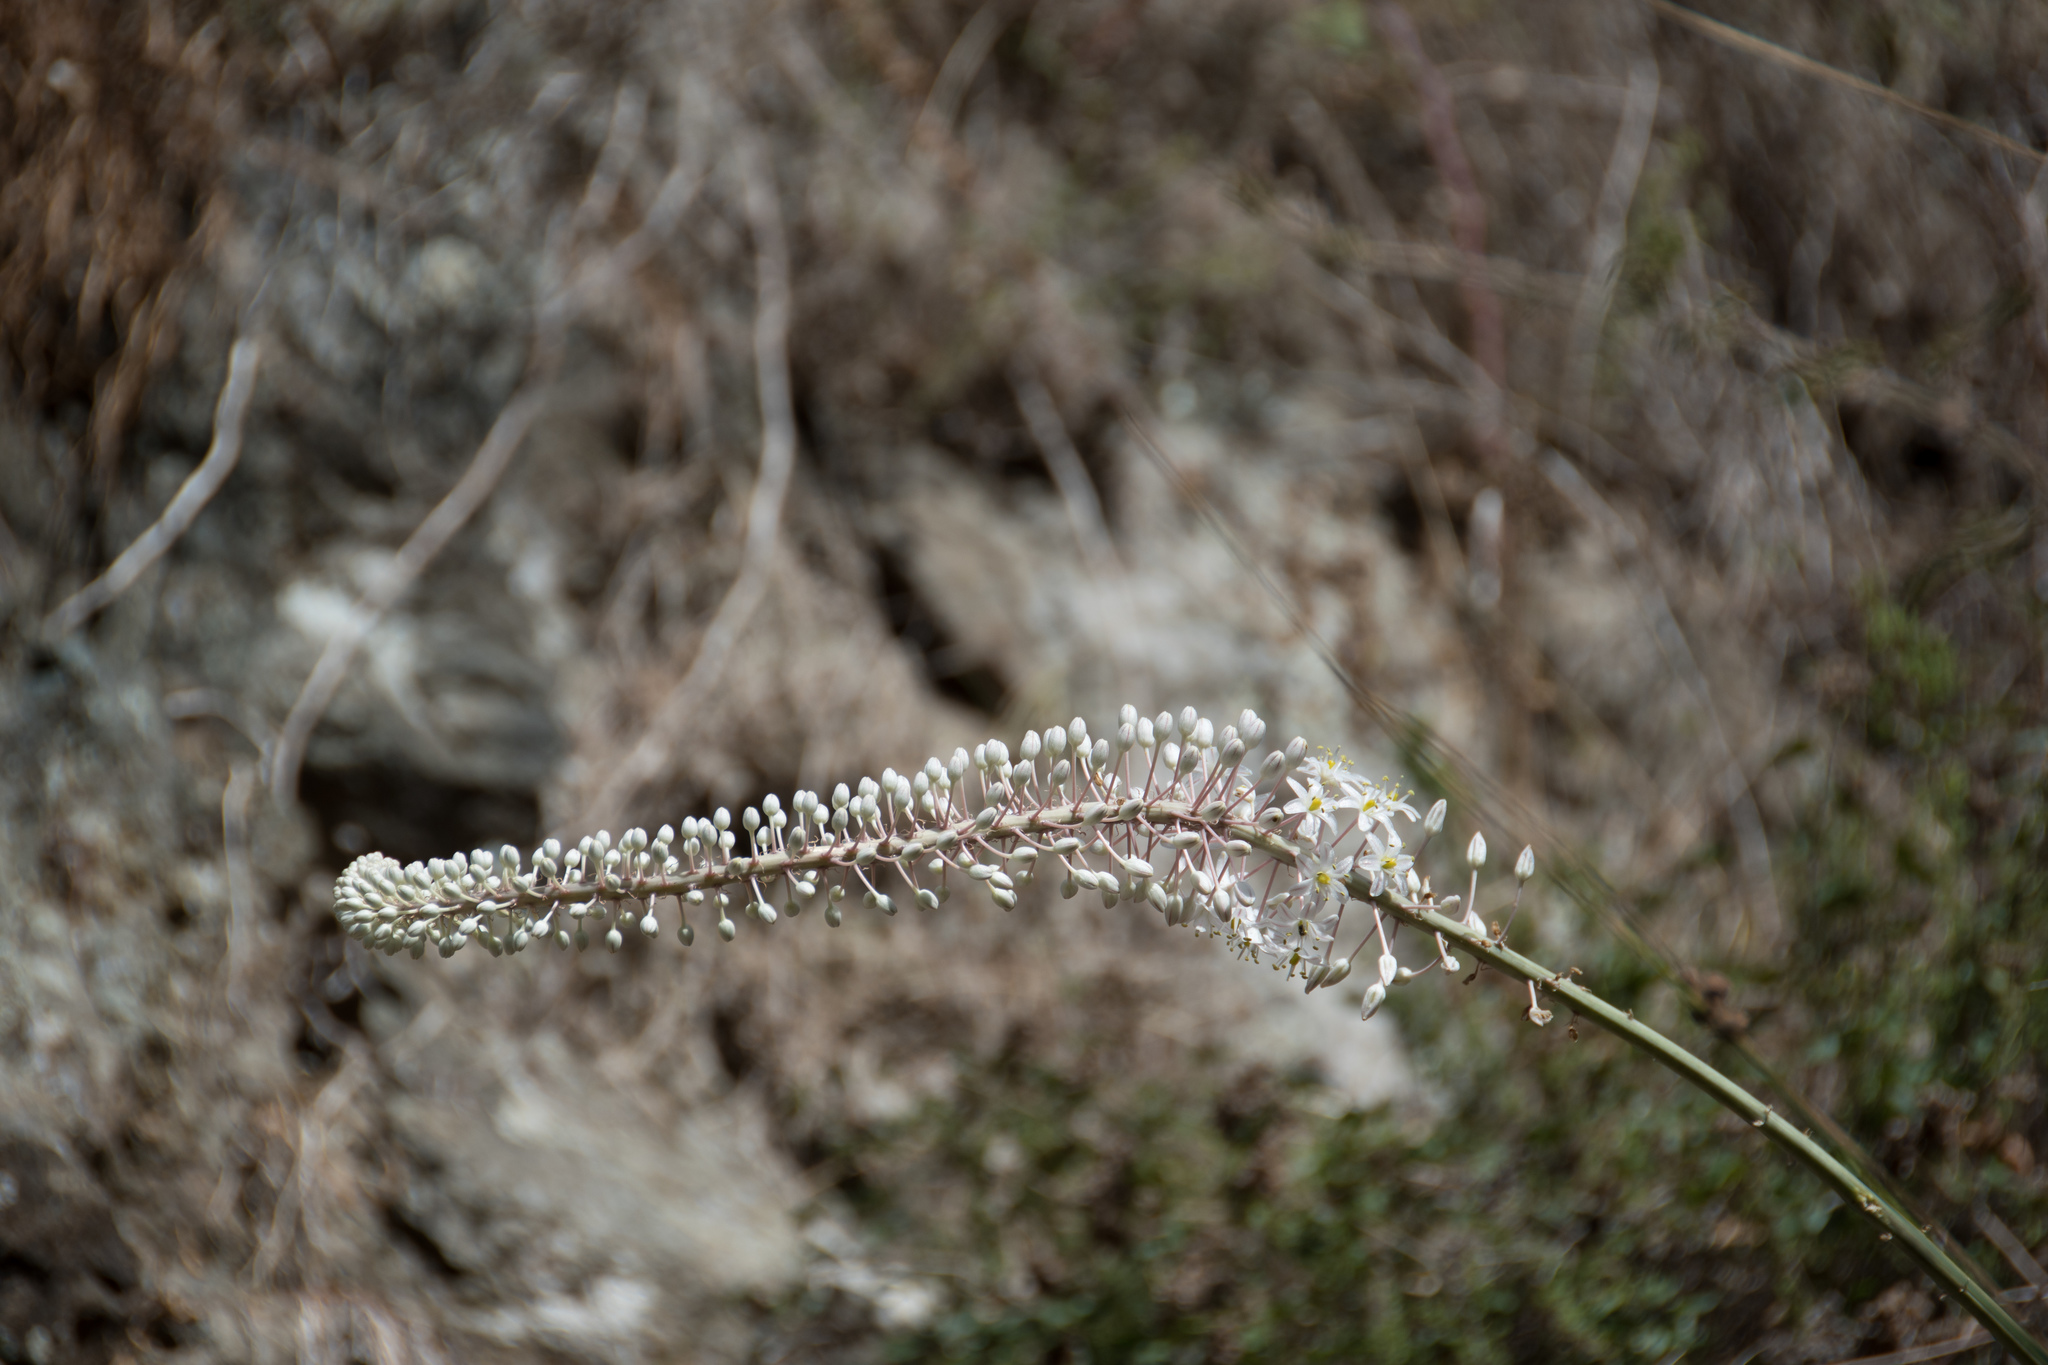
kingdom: Plantae
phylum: Tracheophyta
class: Liliopsida
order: Asparagales
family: Asparagaceae
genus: Drimia
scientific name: Drimia numidica
